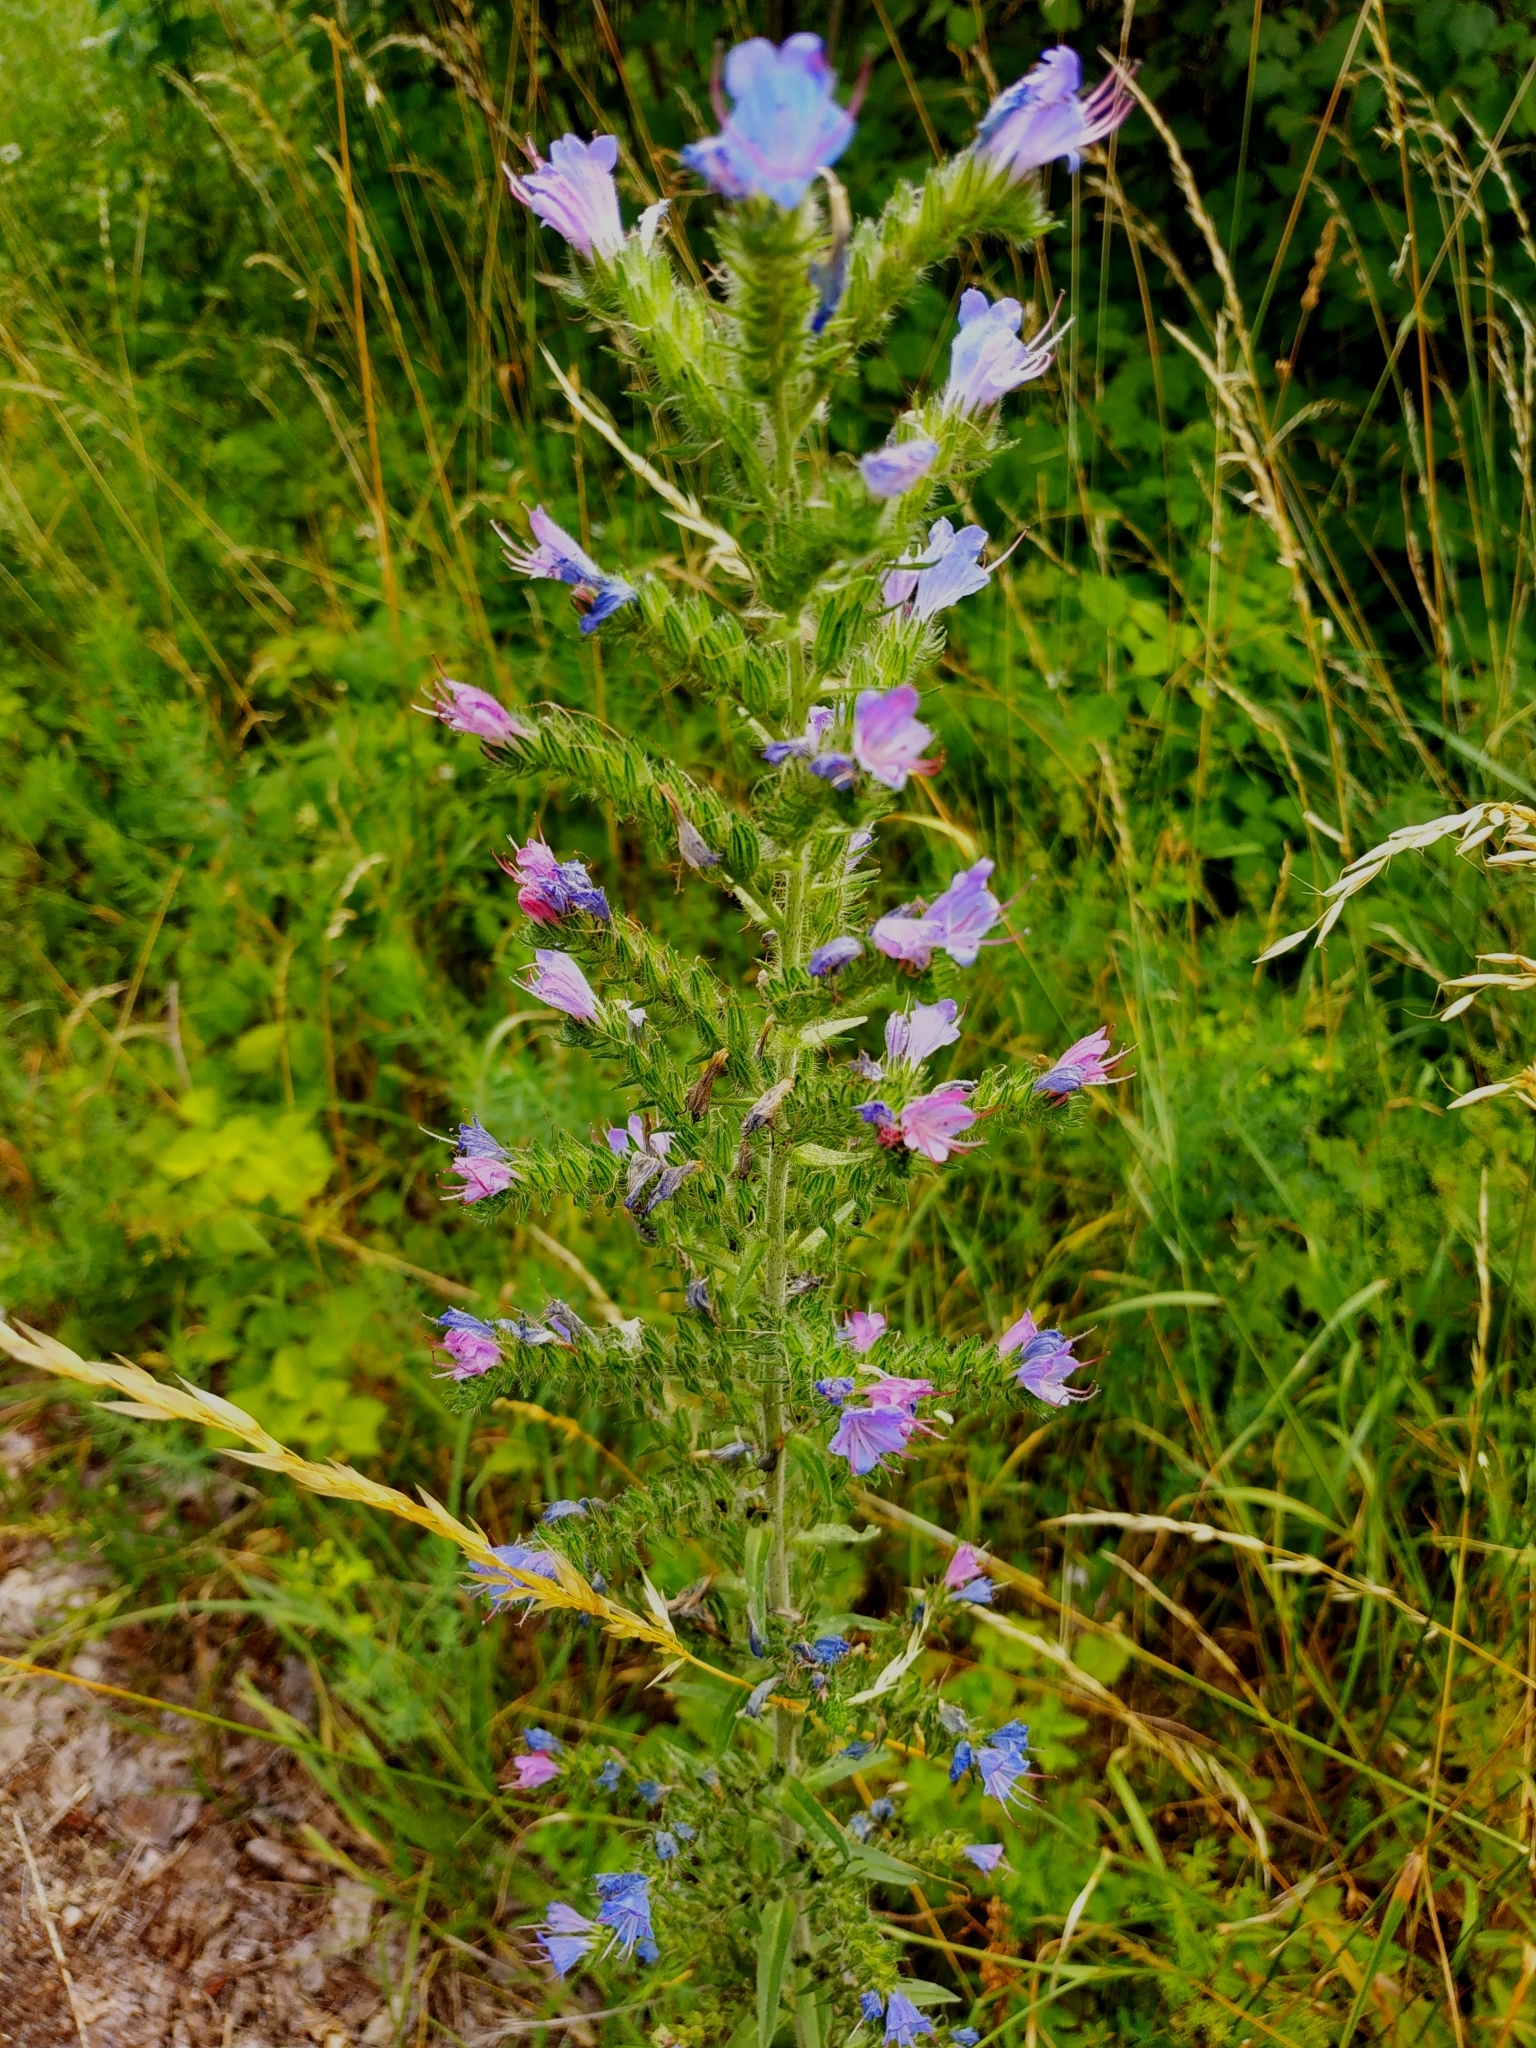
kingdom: Plantae
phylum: Tracheophyta
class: Magnoliopsida
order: Boraginales
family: Boraginaceae
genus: Echium
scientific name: Echium vulgare
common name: Common viper's bugloss
